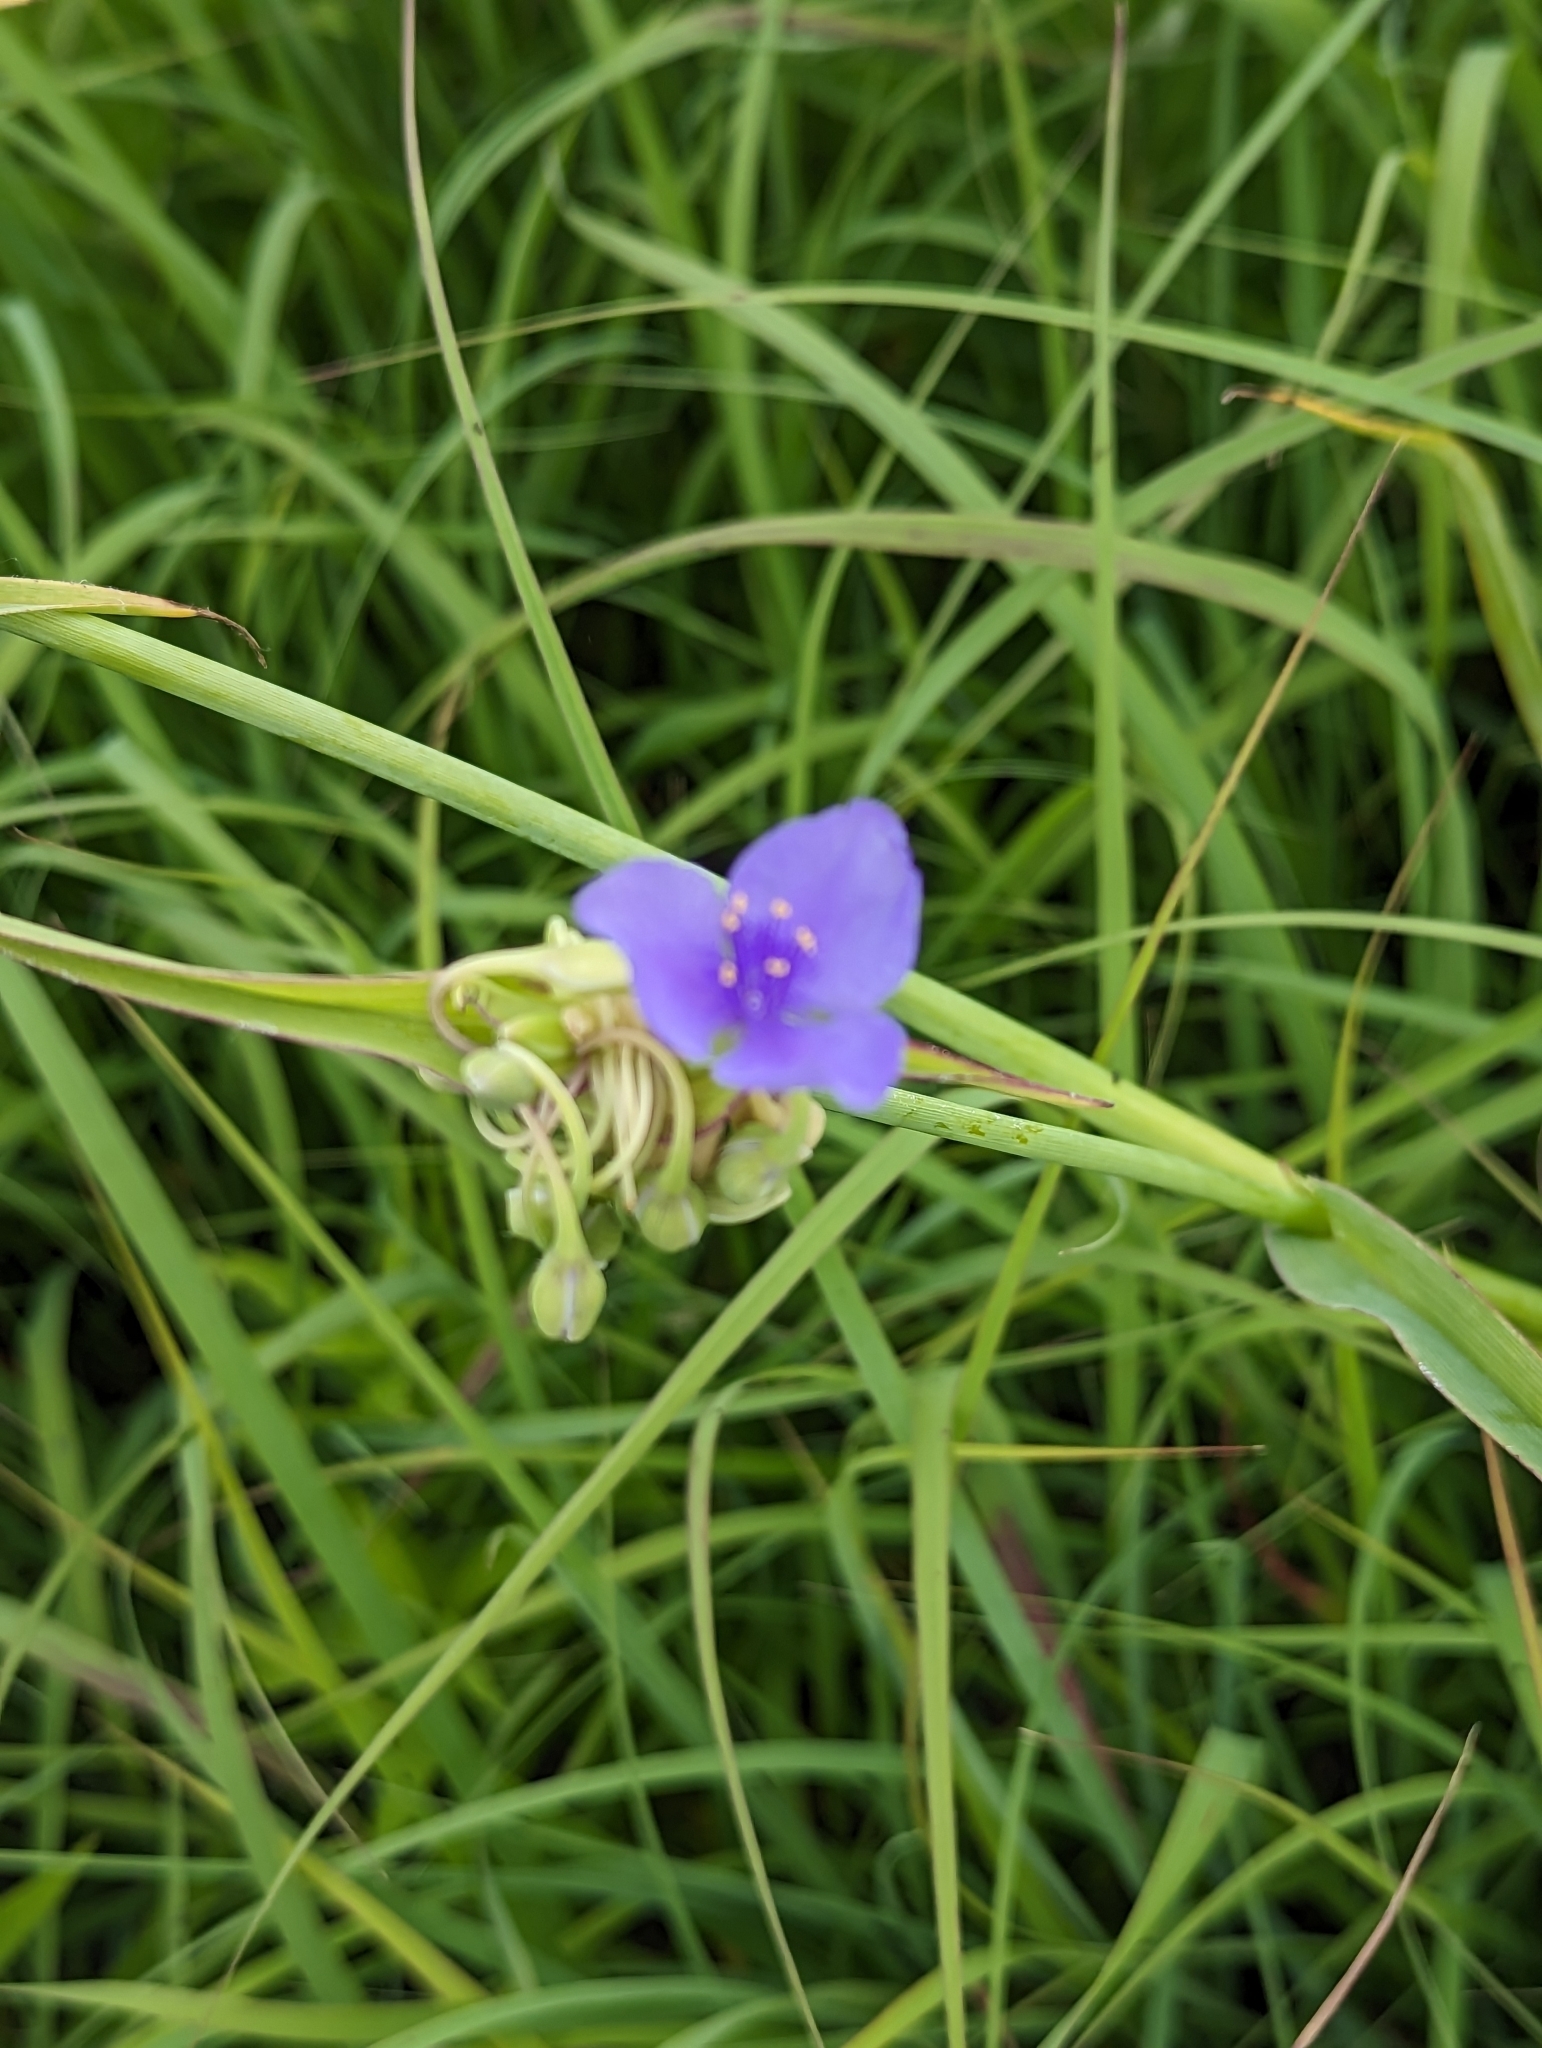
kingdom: Plantae
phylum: Tracheophyta
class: Liliopsida
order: Commelinales
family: Commelinaceae
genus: Tradescantia
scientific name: Tradescantia ohiensis
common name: Ohio spiderwort
